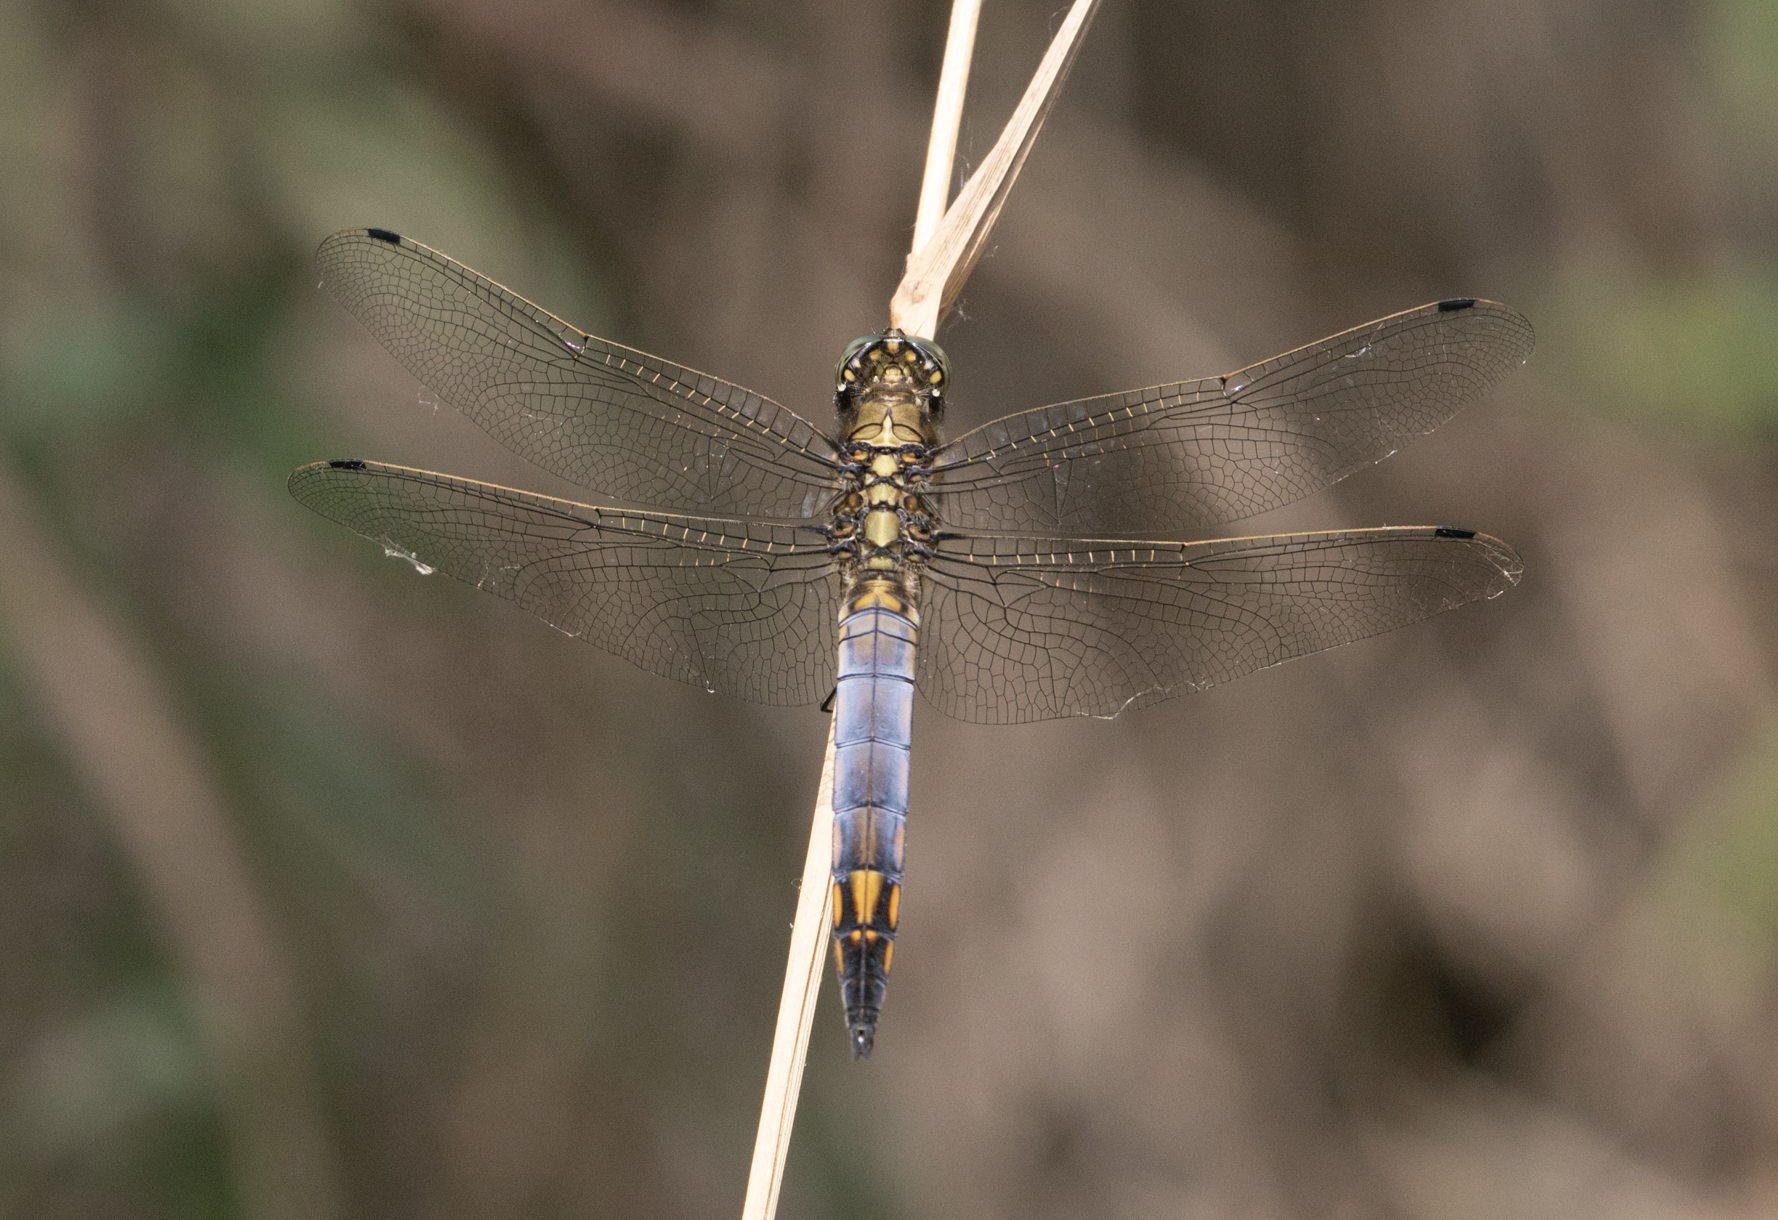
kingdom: Animalia
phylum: Arthropoda
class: Insecta
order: Odonata
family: Libellulidae
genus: Orthetrum
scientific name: Orthetrum cancellatum
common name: Black-tailed skimmer
